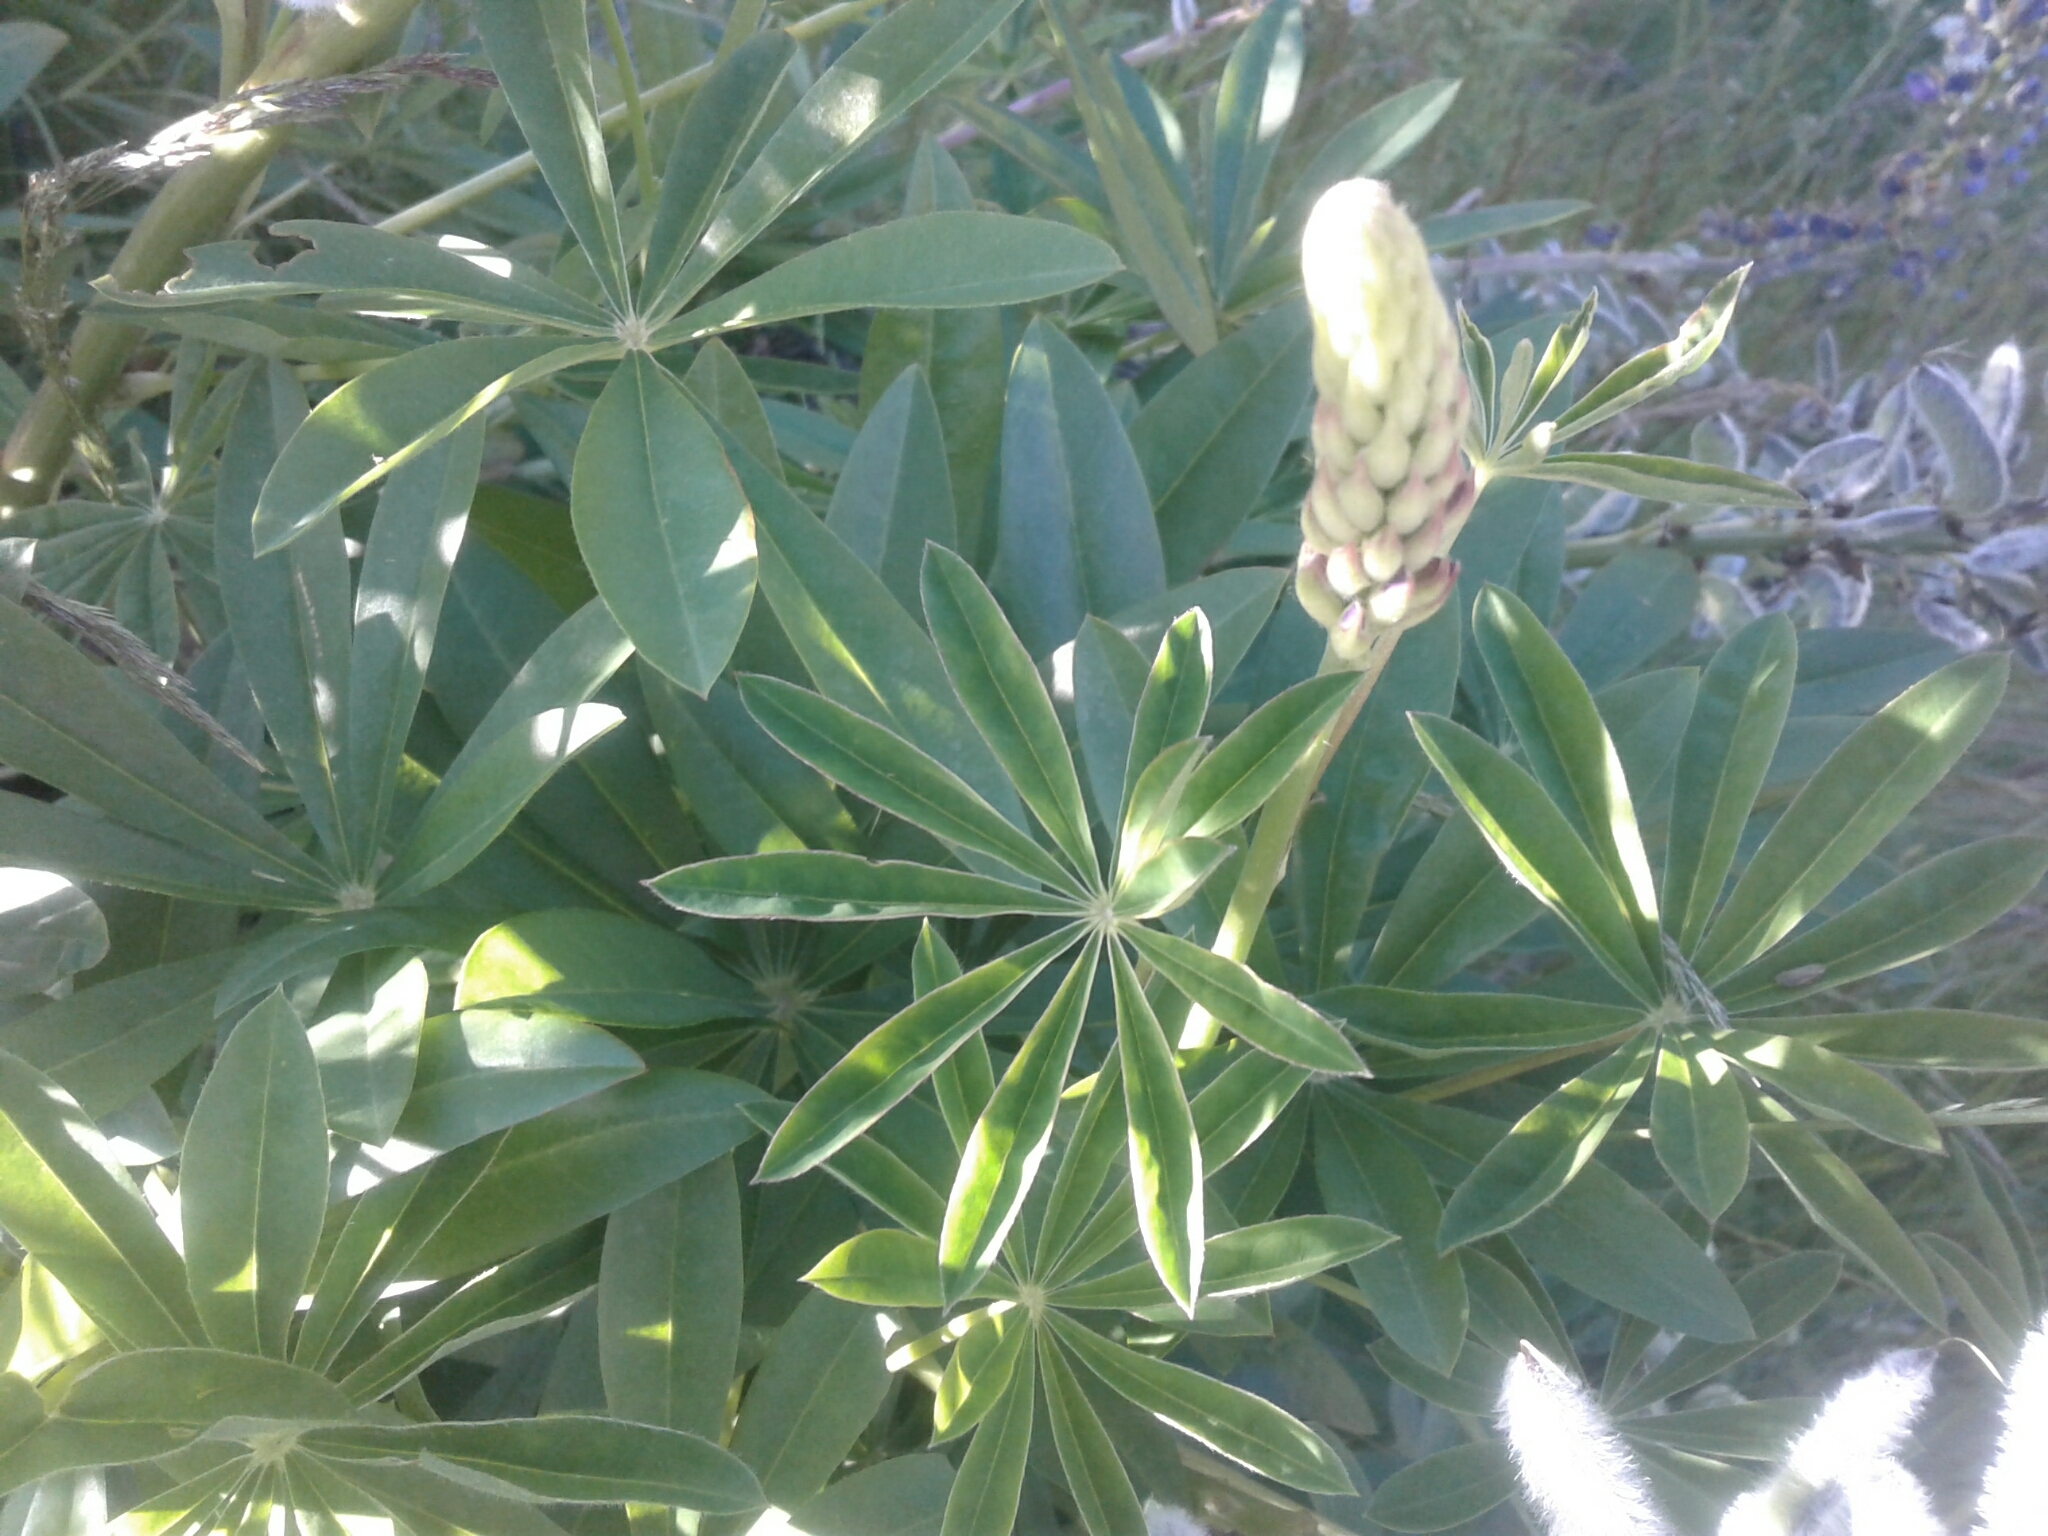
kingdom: Plantae
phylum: Tracheophyta
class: Magnoliopsida
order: Fabales
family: Fabaceae
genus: Lupinus
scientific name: Lupinus polyphyllus
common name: Garden lupin
